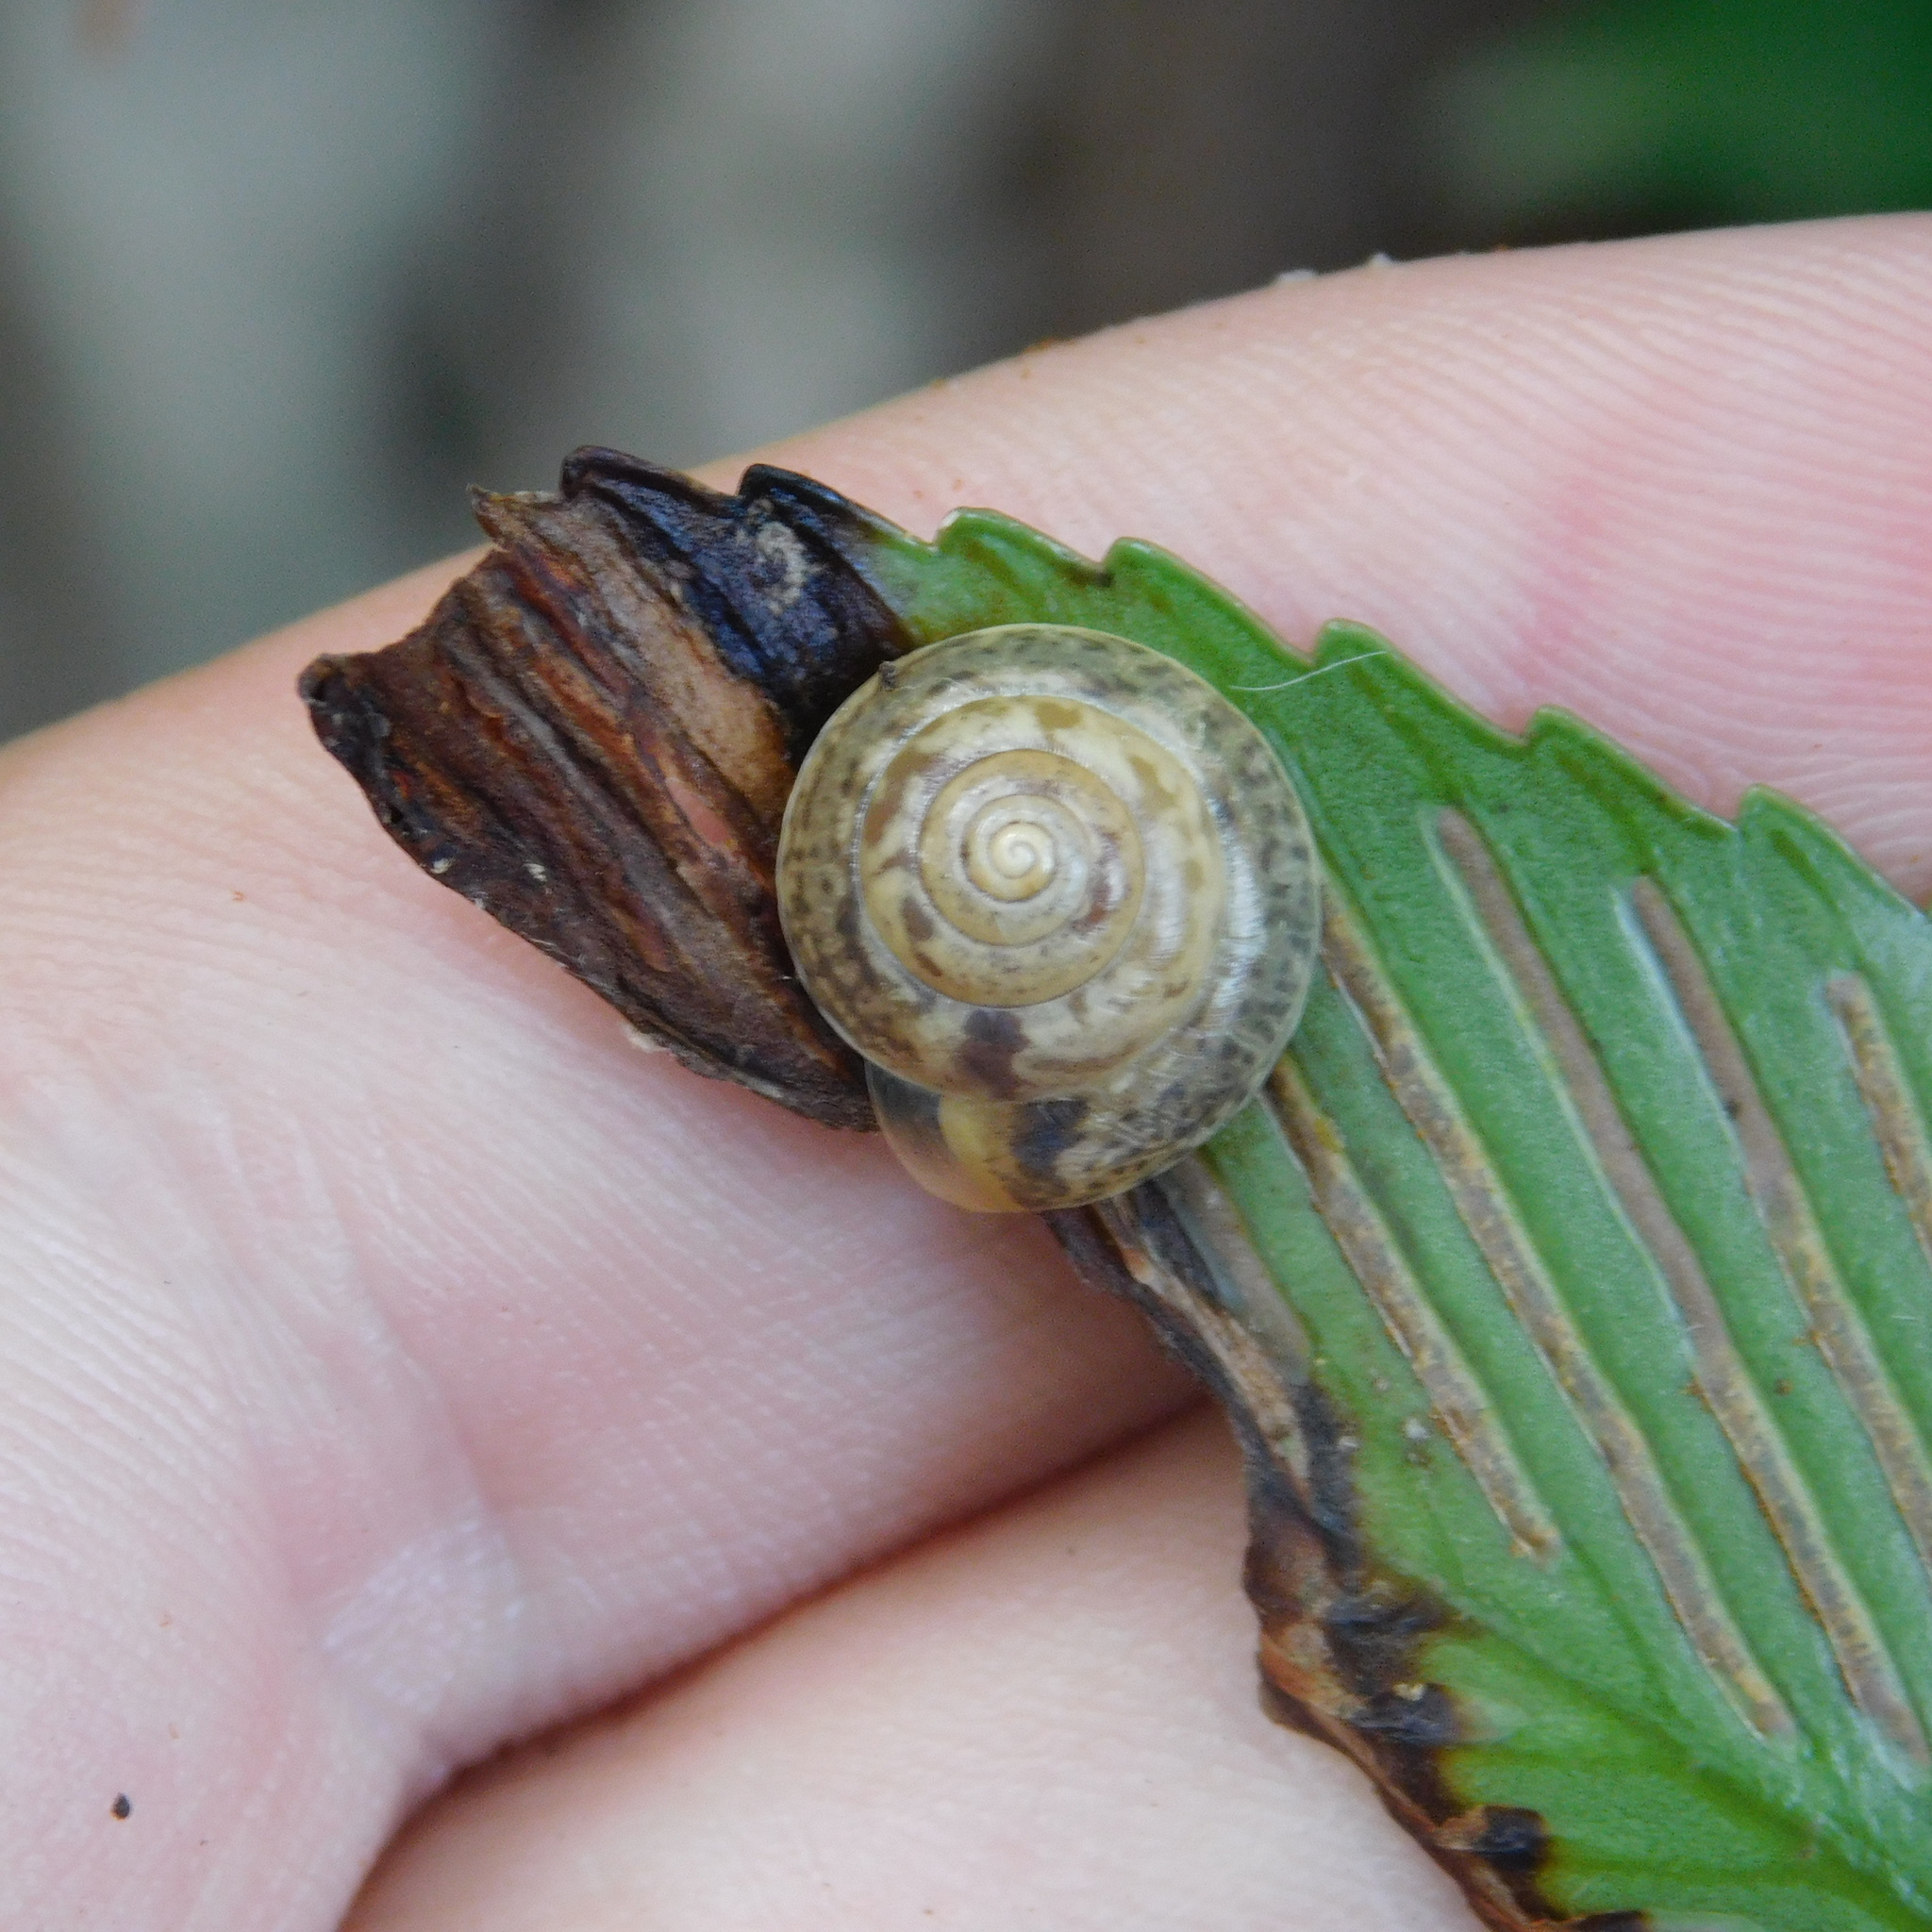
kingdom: Animalia
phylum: Mollusca
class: Gastropoda
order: Stylommatophora
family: Hygromiidae
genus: Hygromia
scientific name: Hygromia cinctella
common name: Girdled snail
